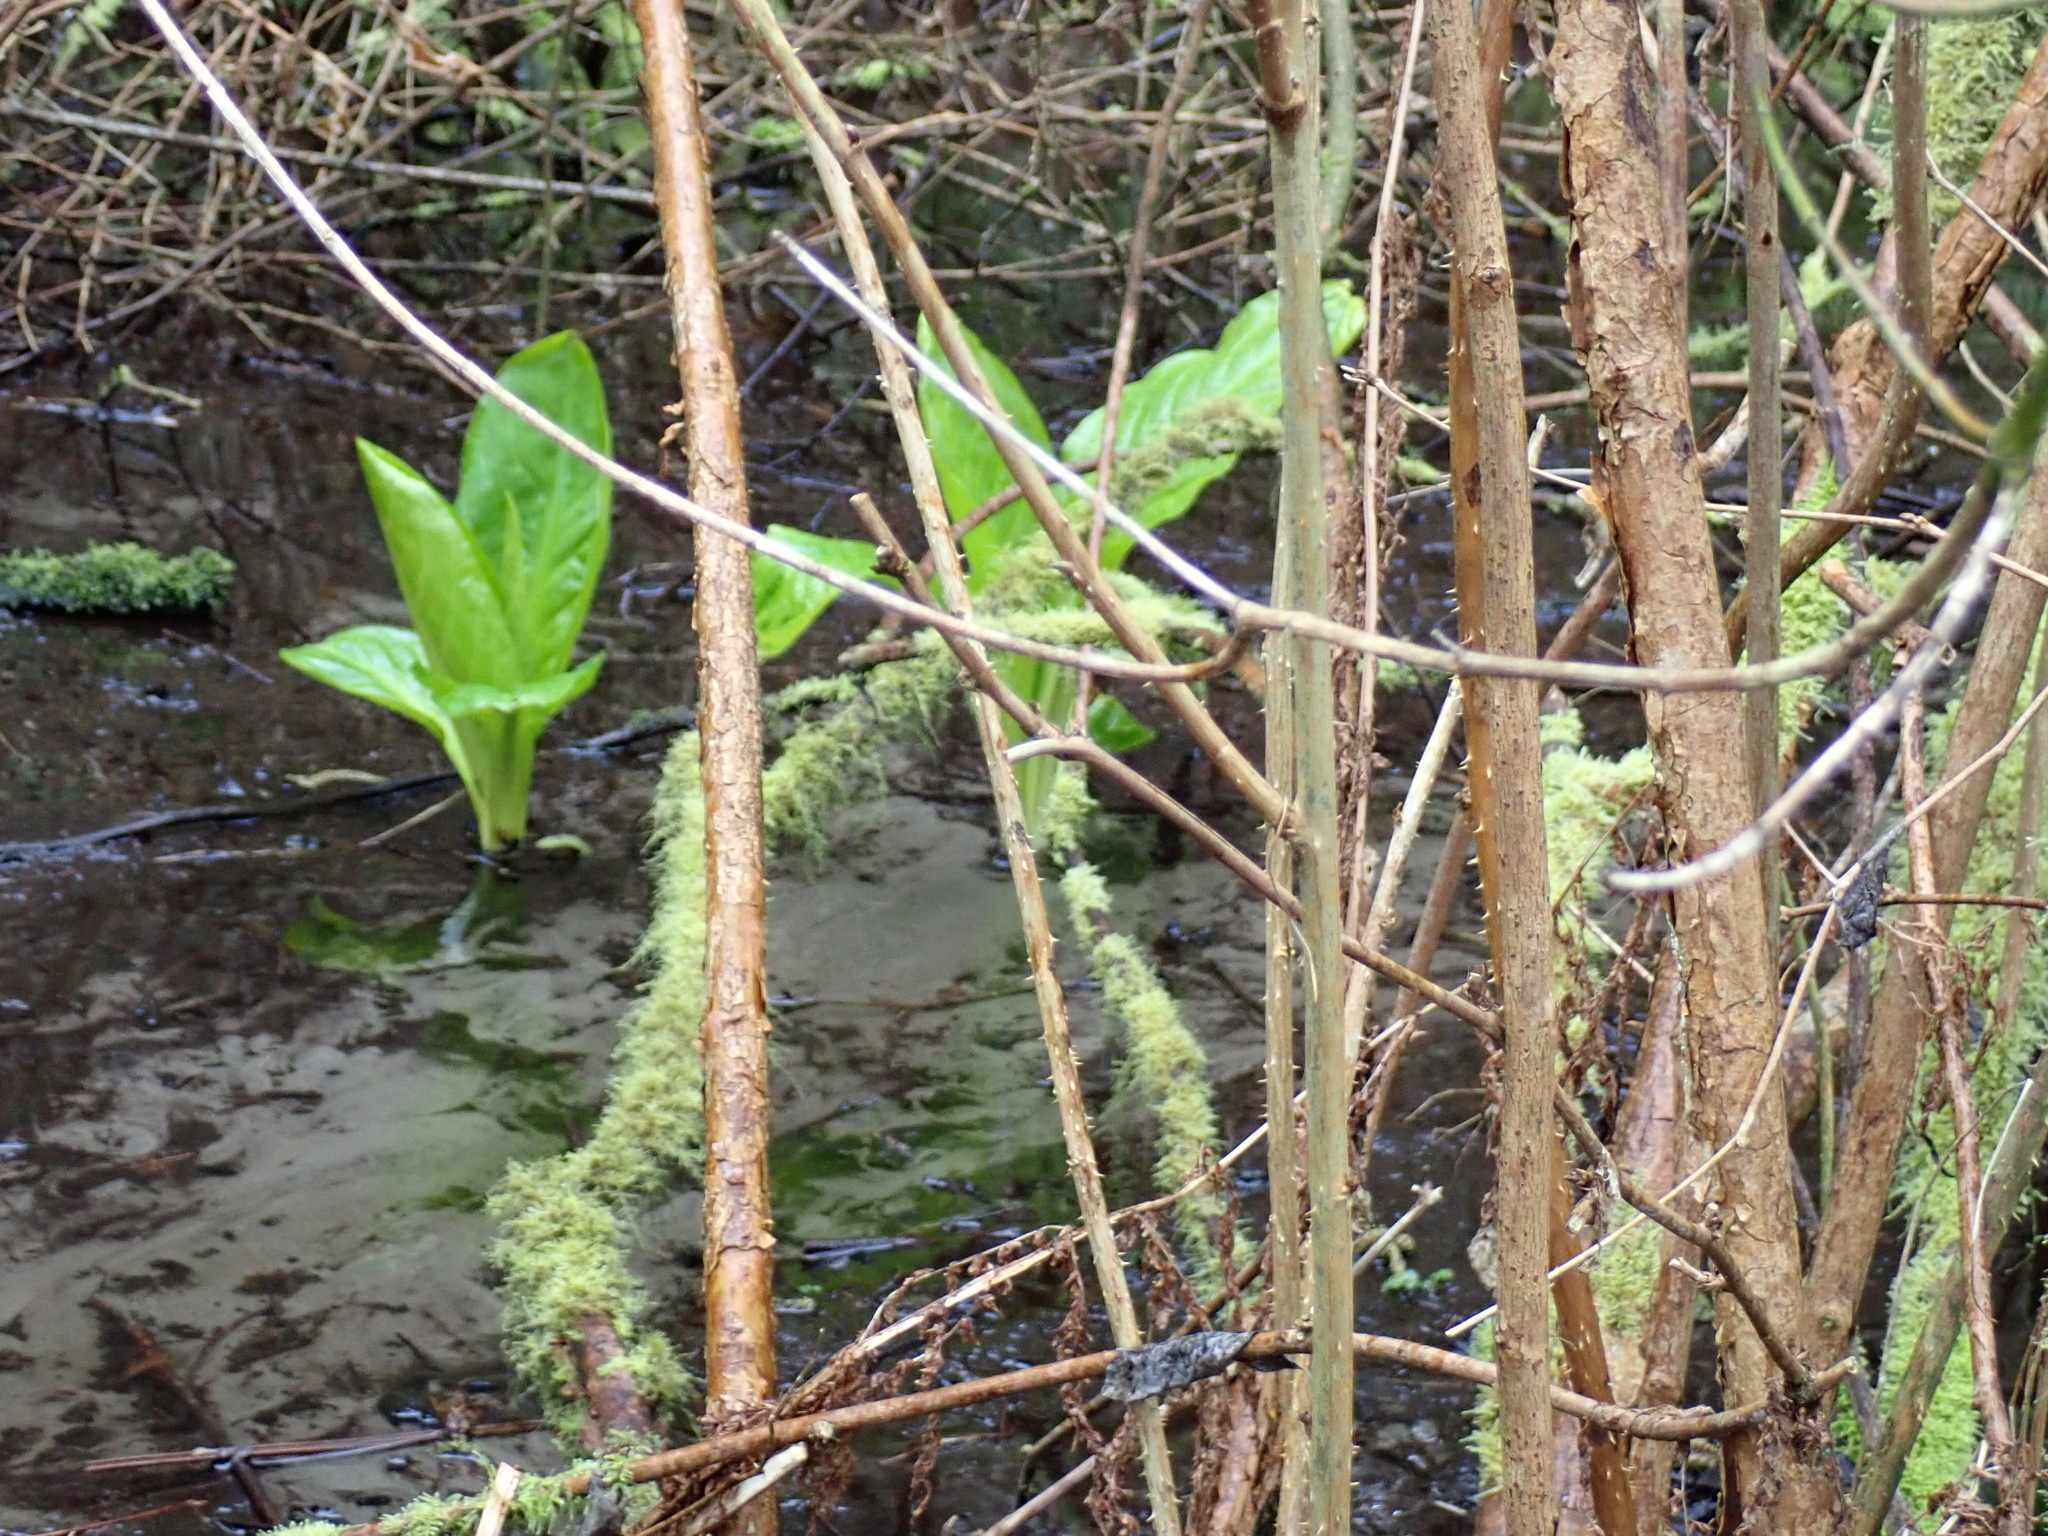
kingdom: Plantae
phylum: Tracheophyta
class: Liliopsida
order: Alismatales
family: Araceae
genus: Lysichiton
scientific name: Lysichiton americanus
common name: American skunk cabbage
